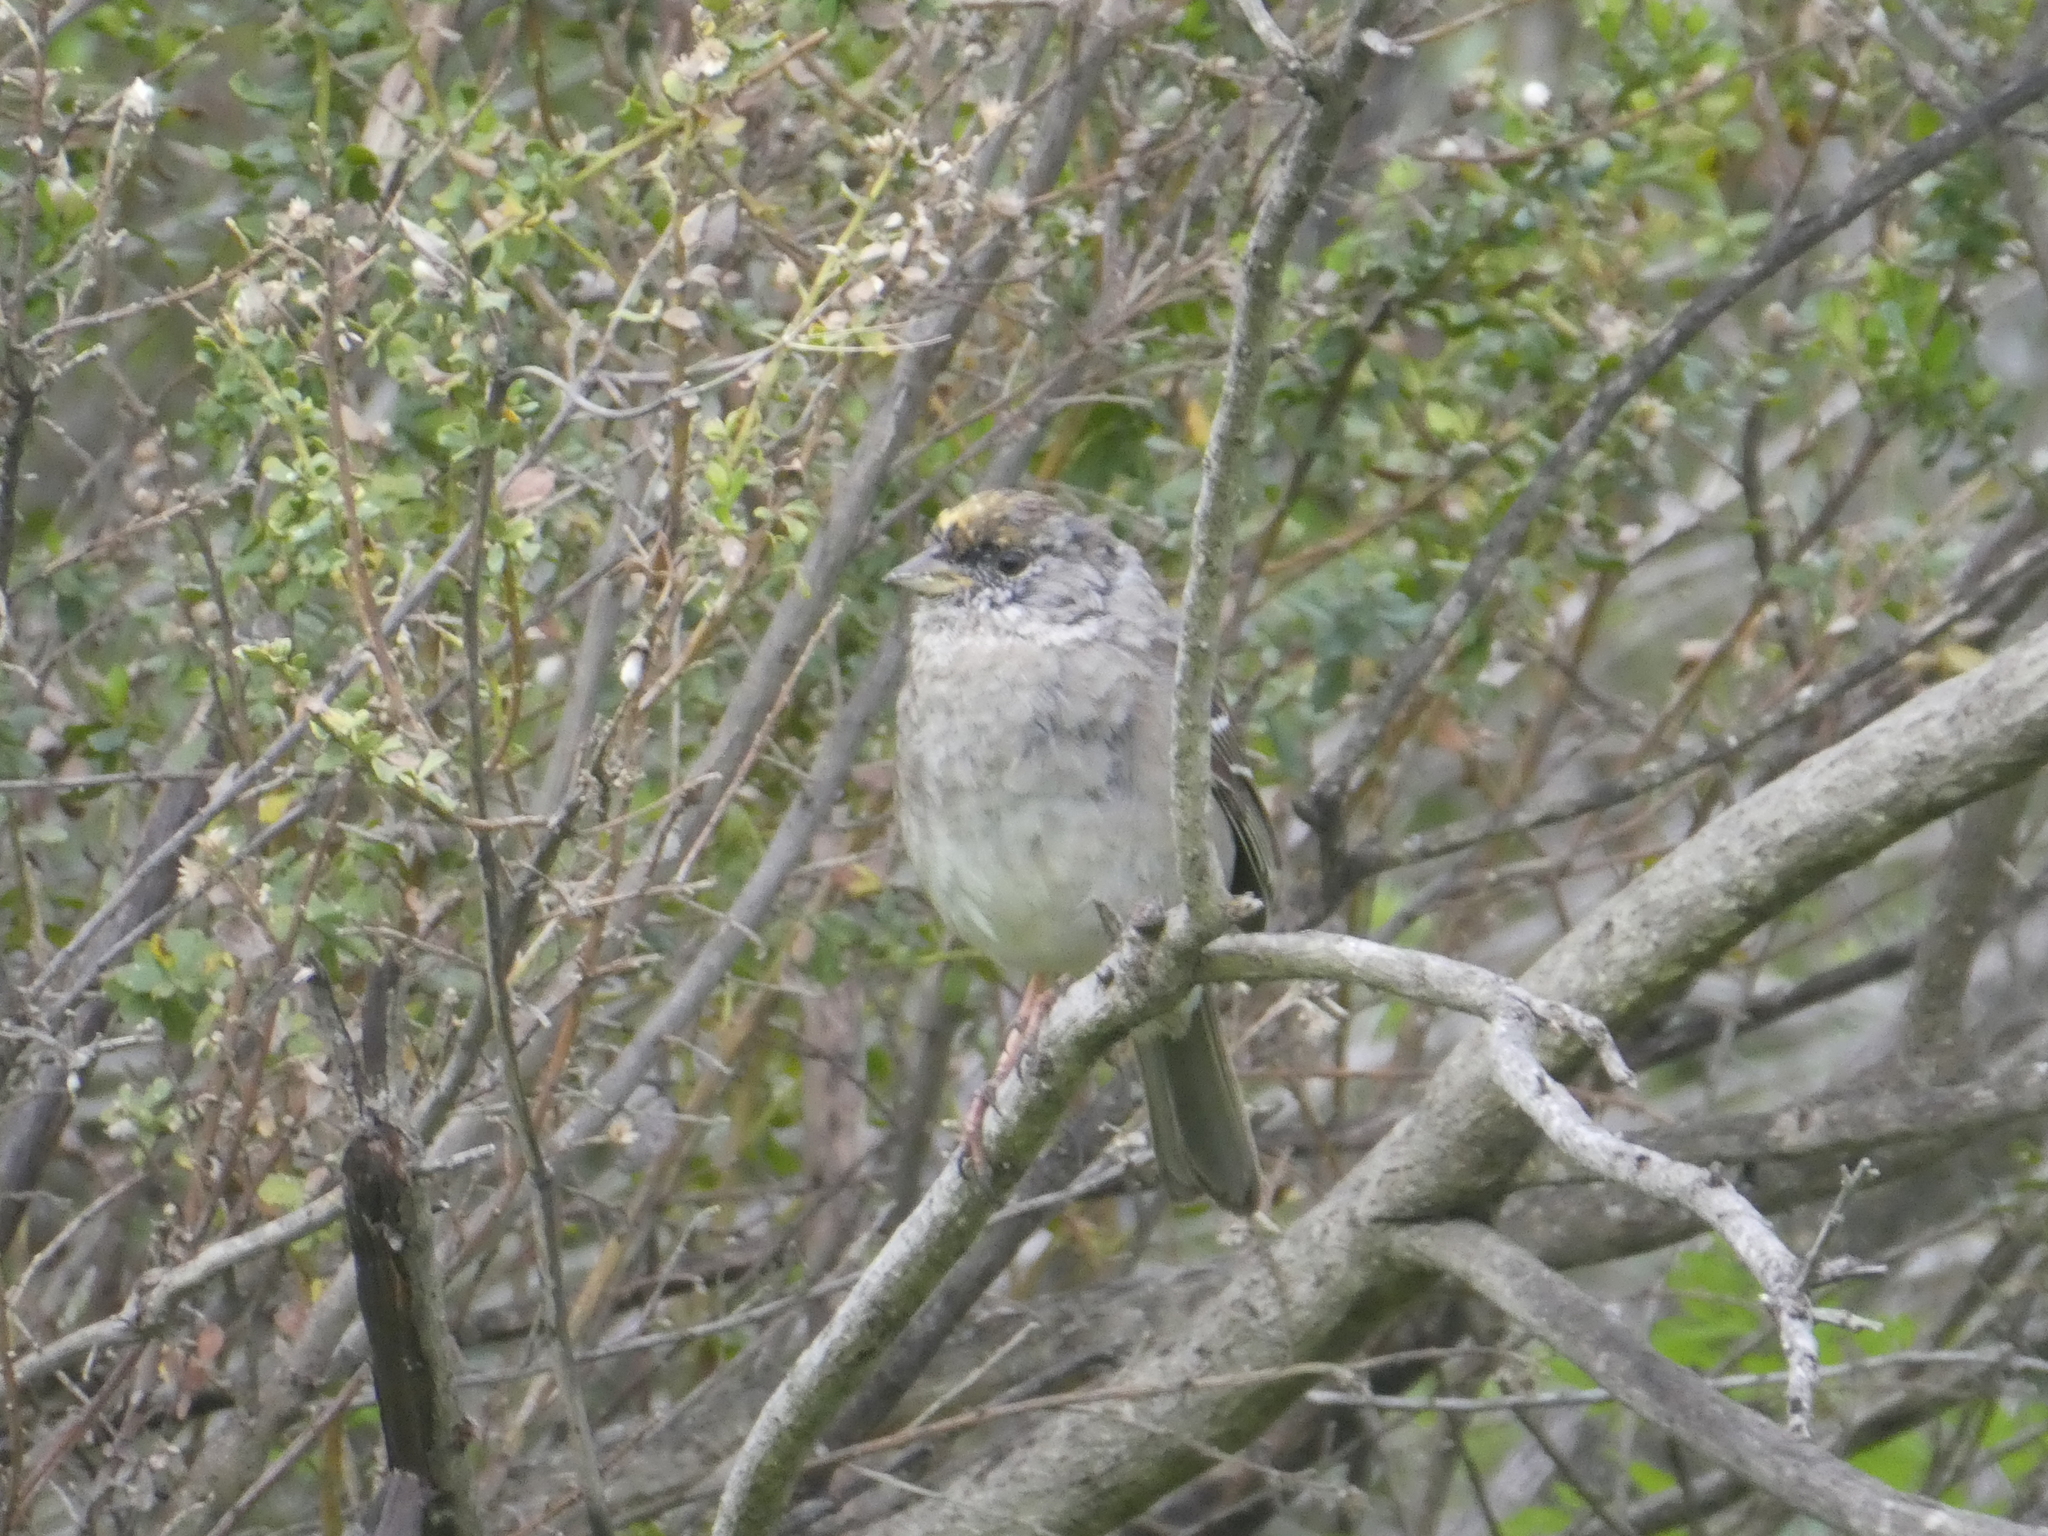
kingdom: Animalia
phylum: Chordata
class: Aves
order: Passeriformes
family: Passerellidae
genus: Zonotrichia
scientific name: Zonotrichia atricapilla
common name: Golden-crowned sparrow
